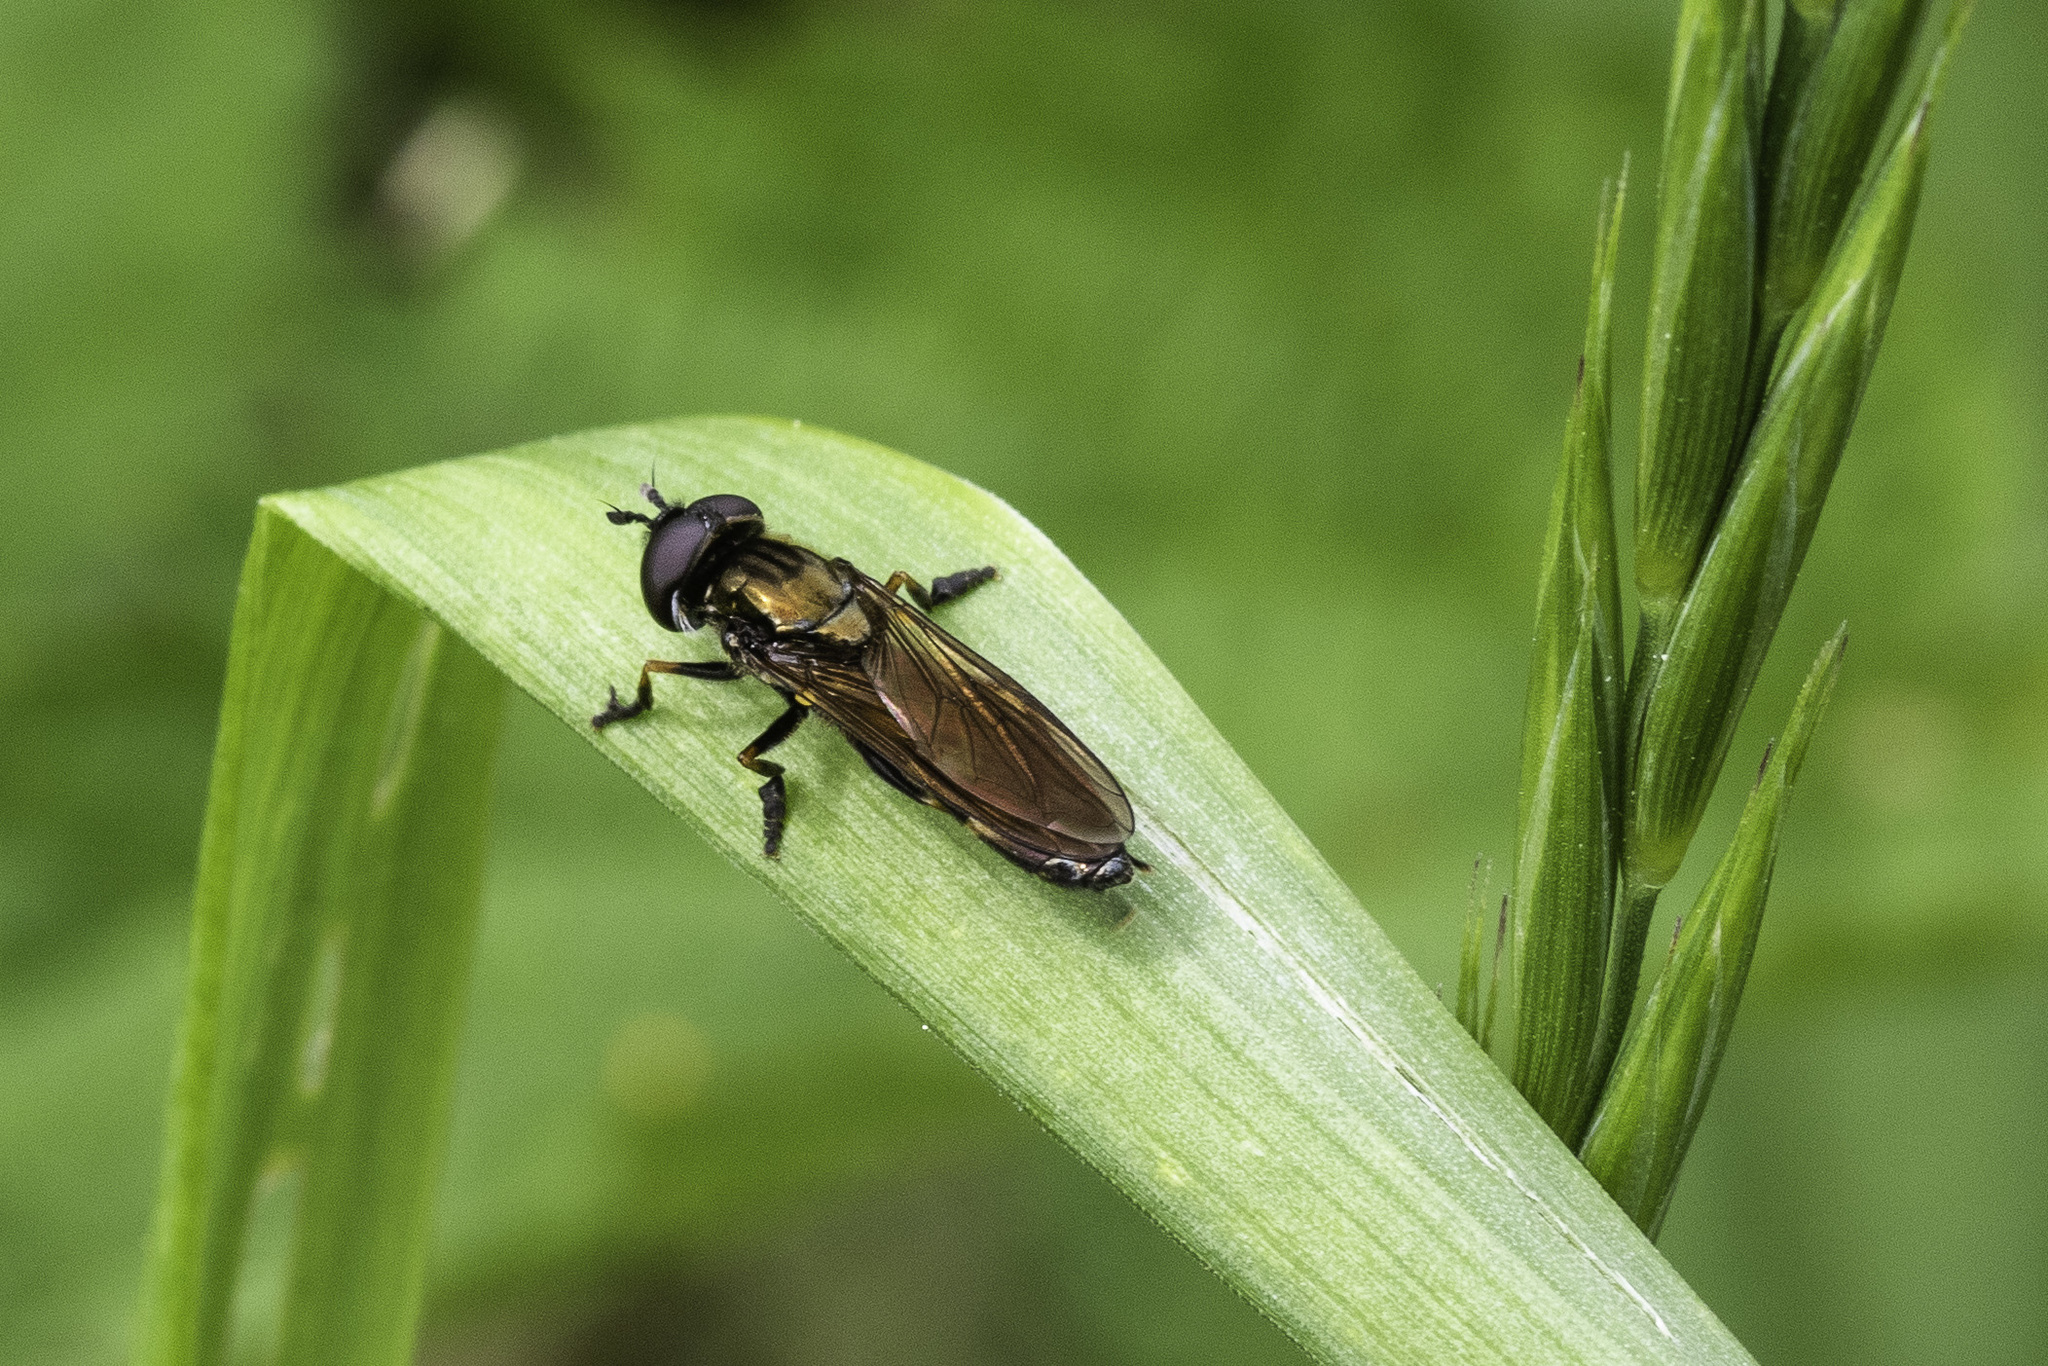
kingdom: Animalia
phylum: Arthropoda
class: Insecta
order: Diptera
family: Syrphidae
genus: Pyrophaena
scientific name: Pyrophaena granditarsa
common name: Hornhand sedgesitter
